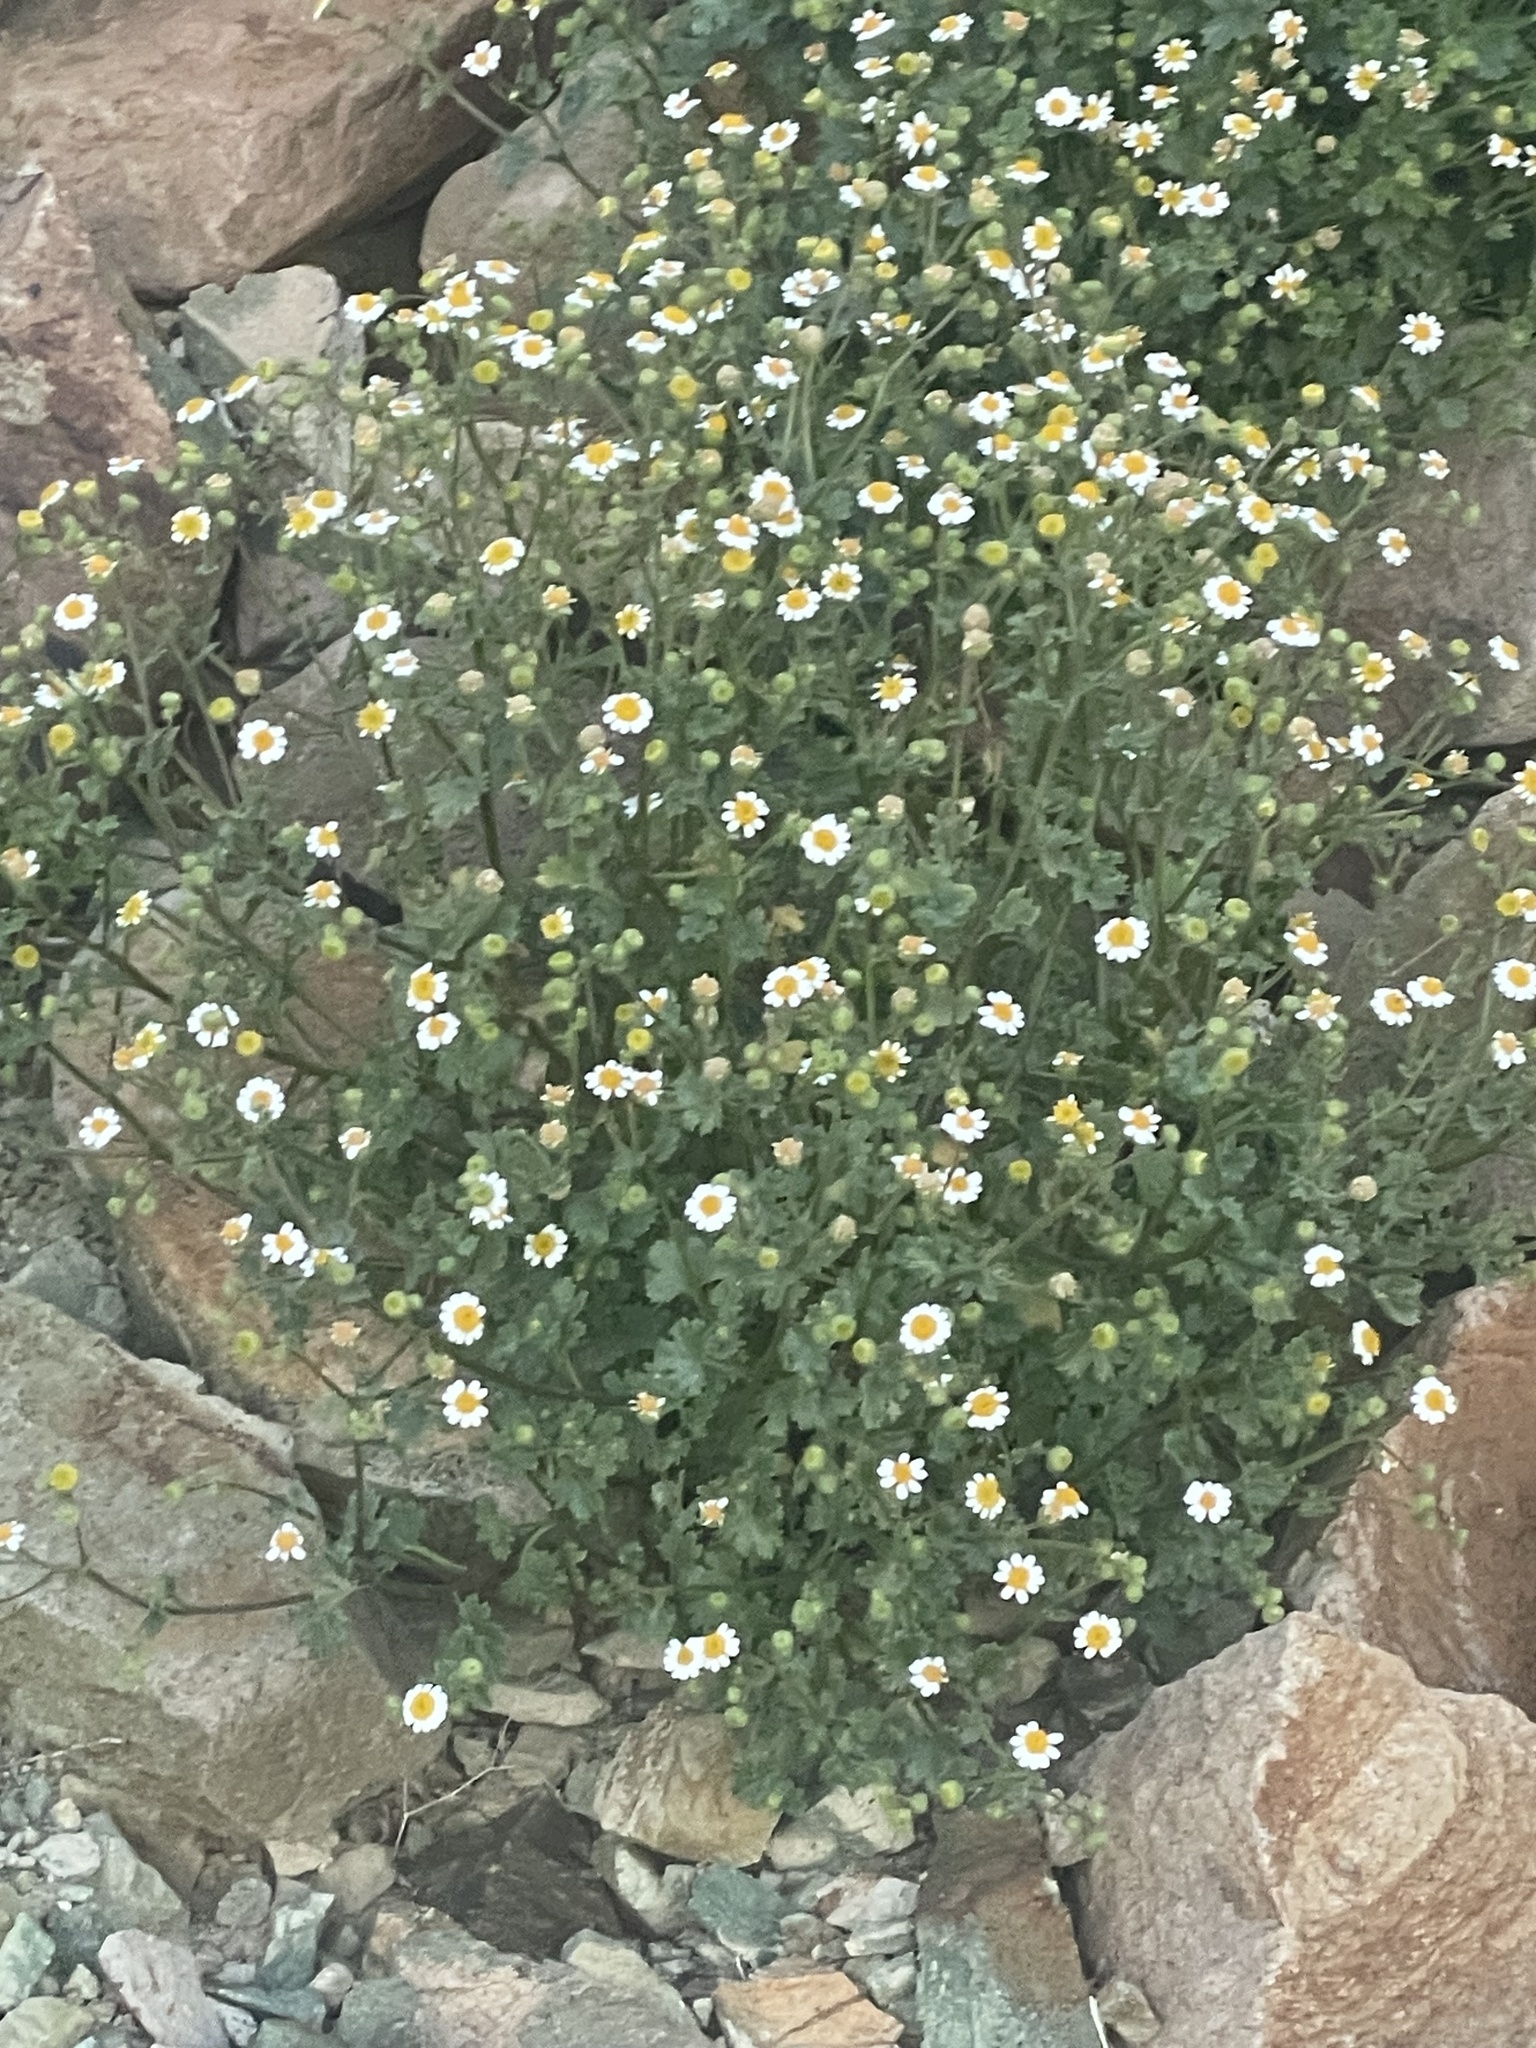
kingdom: Plantae
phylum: Tracheophyta
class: Magnoliopsida
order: Asterales
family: Asteraceae
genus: Laphamia
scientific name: Laphamia emoryi
